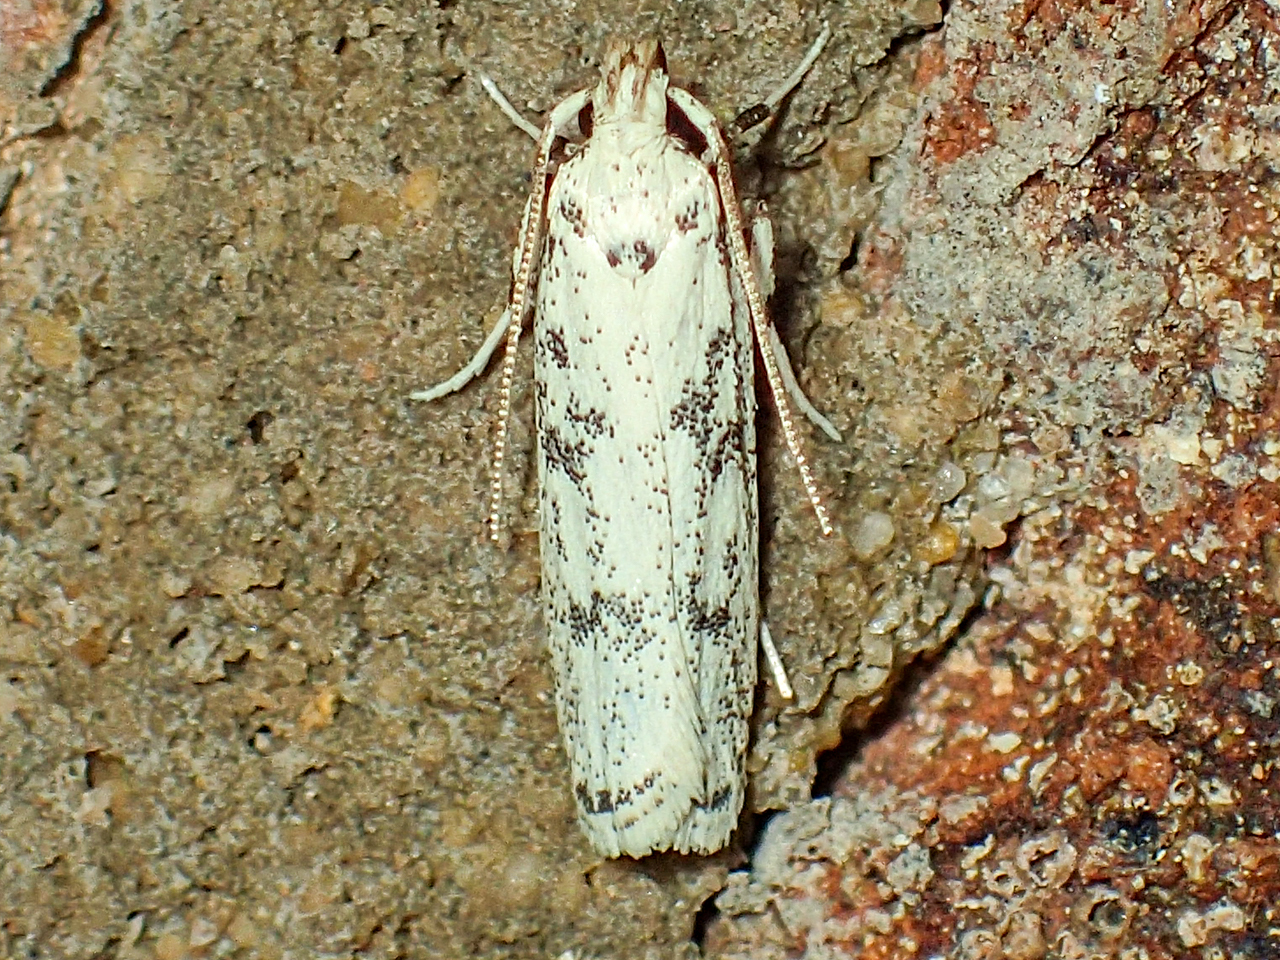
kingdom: Animalia
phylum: Arthropoda
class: Insecta
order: Lepidoptera
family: Autostichidae
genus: Glyphidocera
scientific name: Glyphidocera lactiflosella
